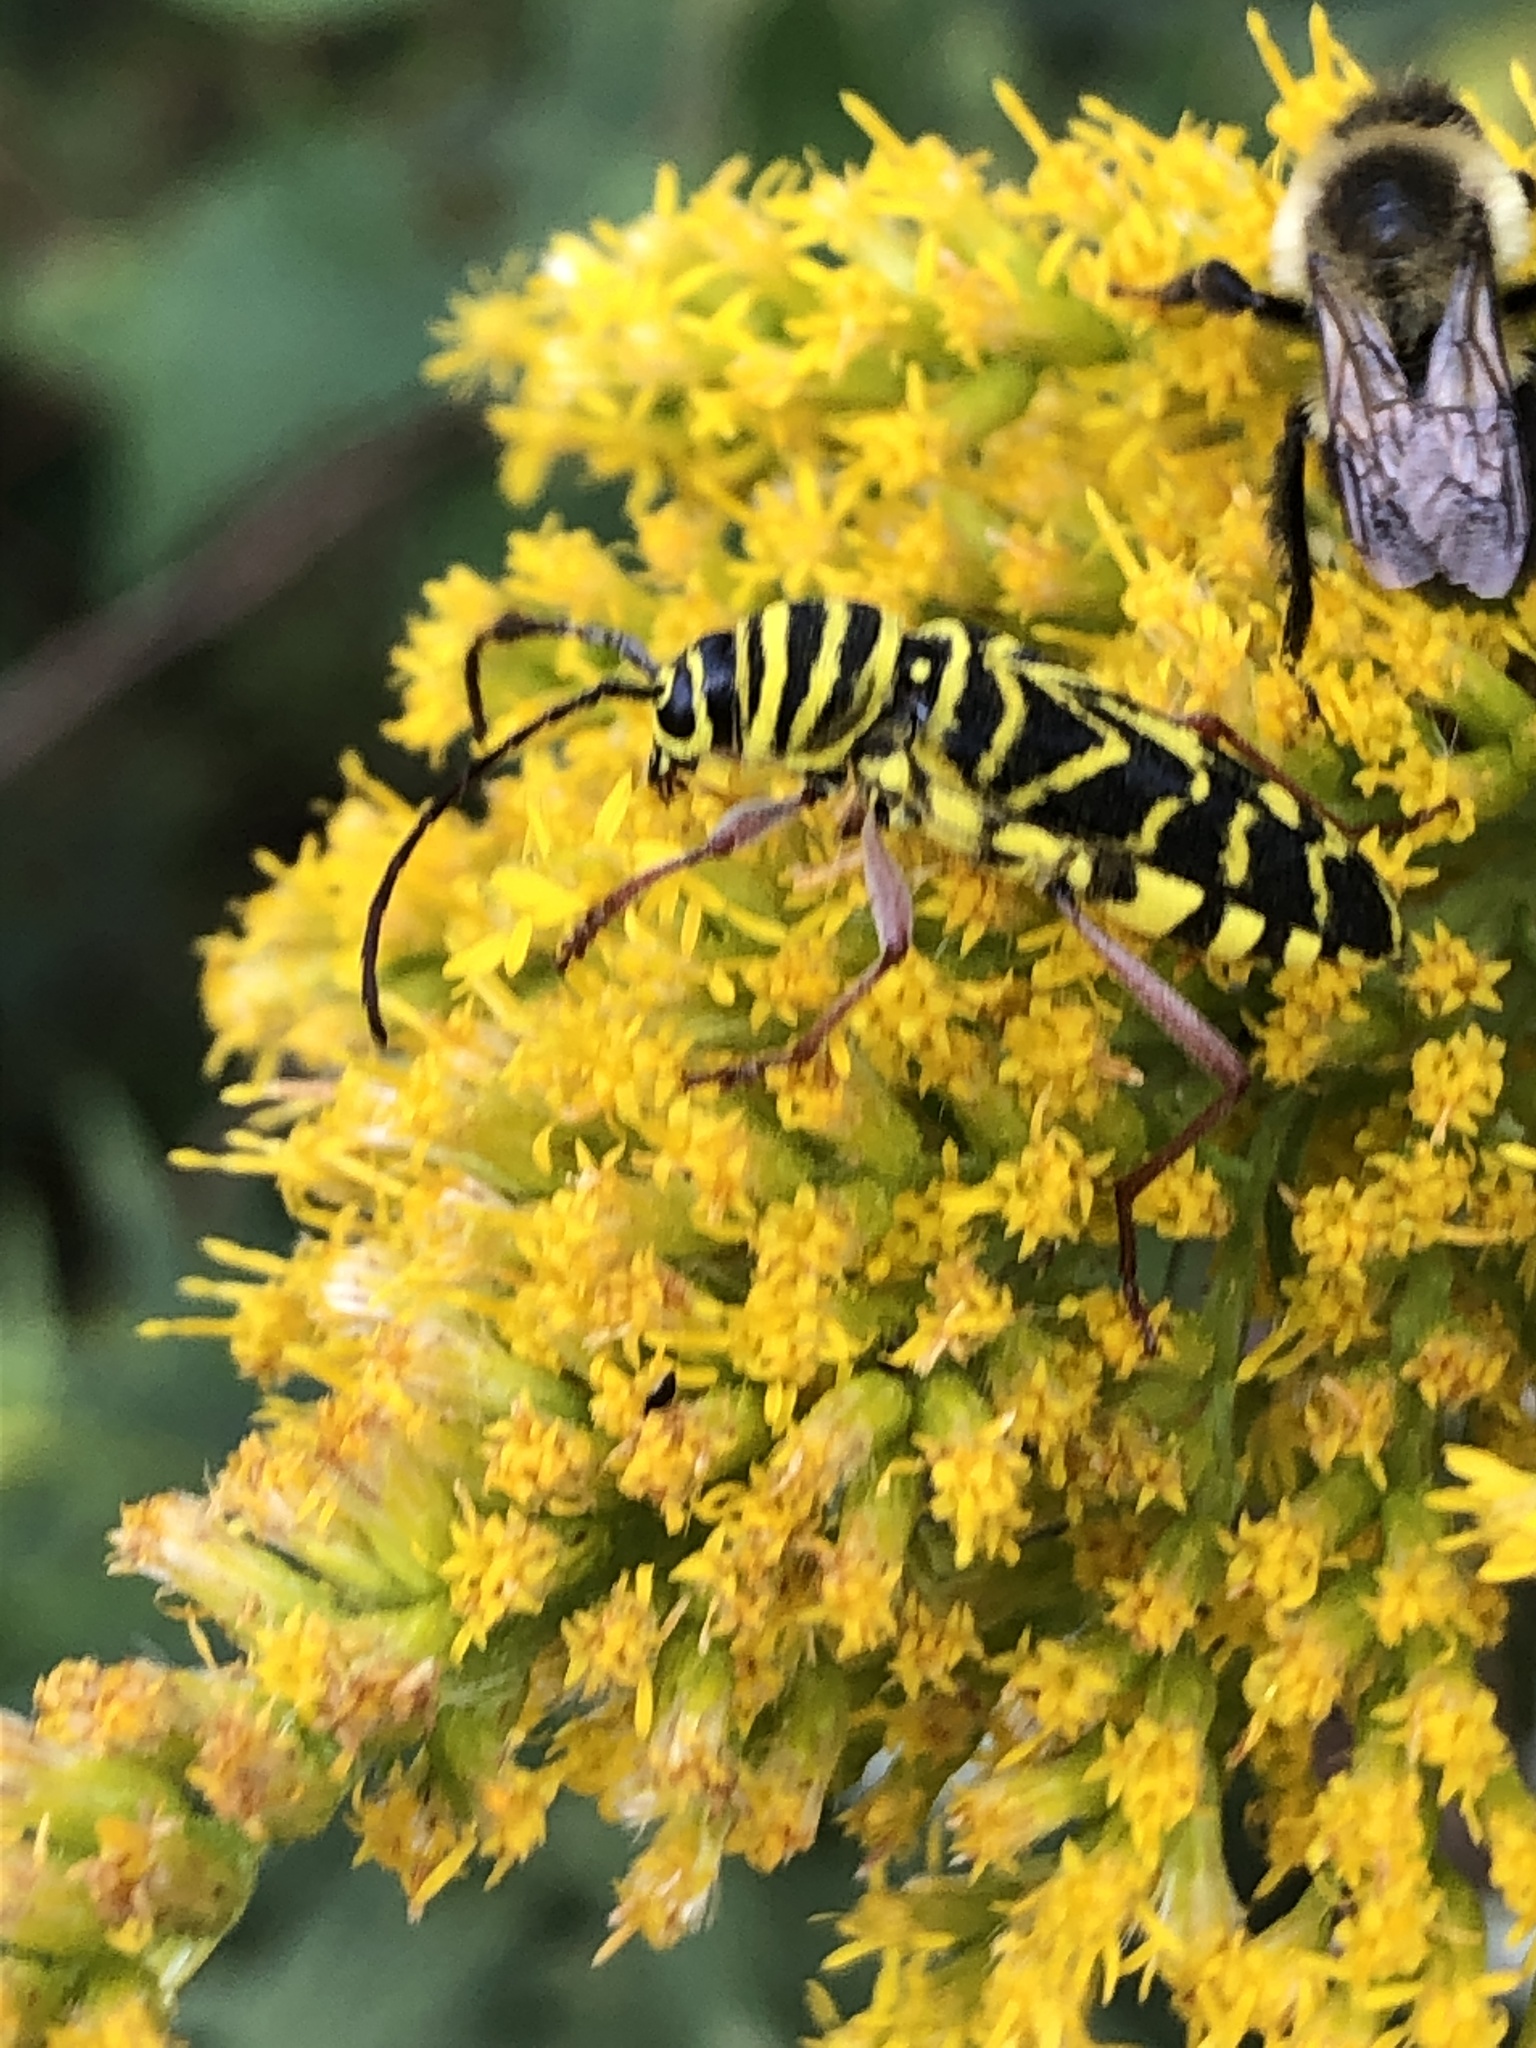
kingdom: Animalia
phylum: Arthropoda
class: Insecta
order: Coleoptera
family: Cerambycidae
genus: Megacyllene
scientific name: Megacyllene robiniae
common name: Locust borer
